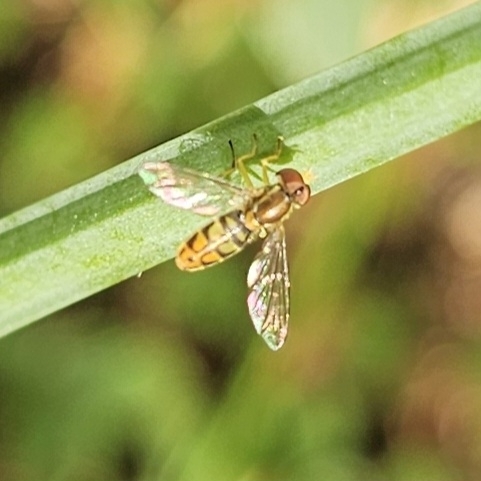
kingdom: Animalia
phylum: Arthropoda
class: Insecta
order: Diptera
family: Syrphidae
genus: Toxomerus
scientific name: Toxomerus marginatus
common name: Syrphid fly
